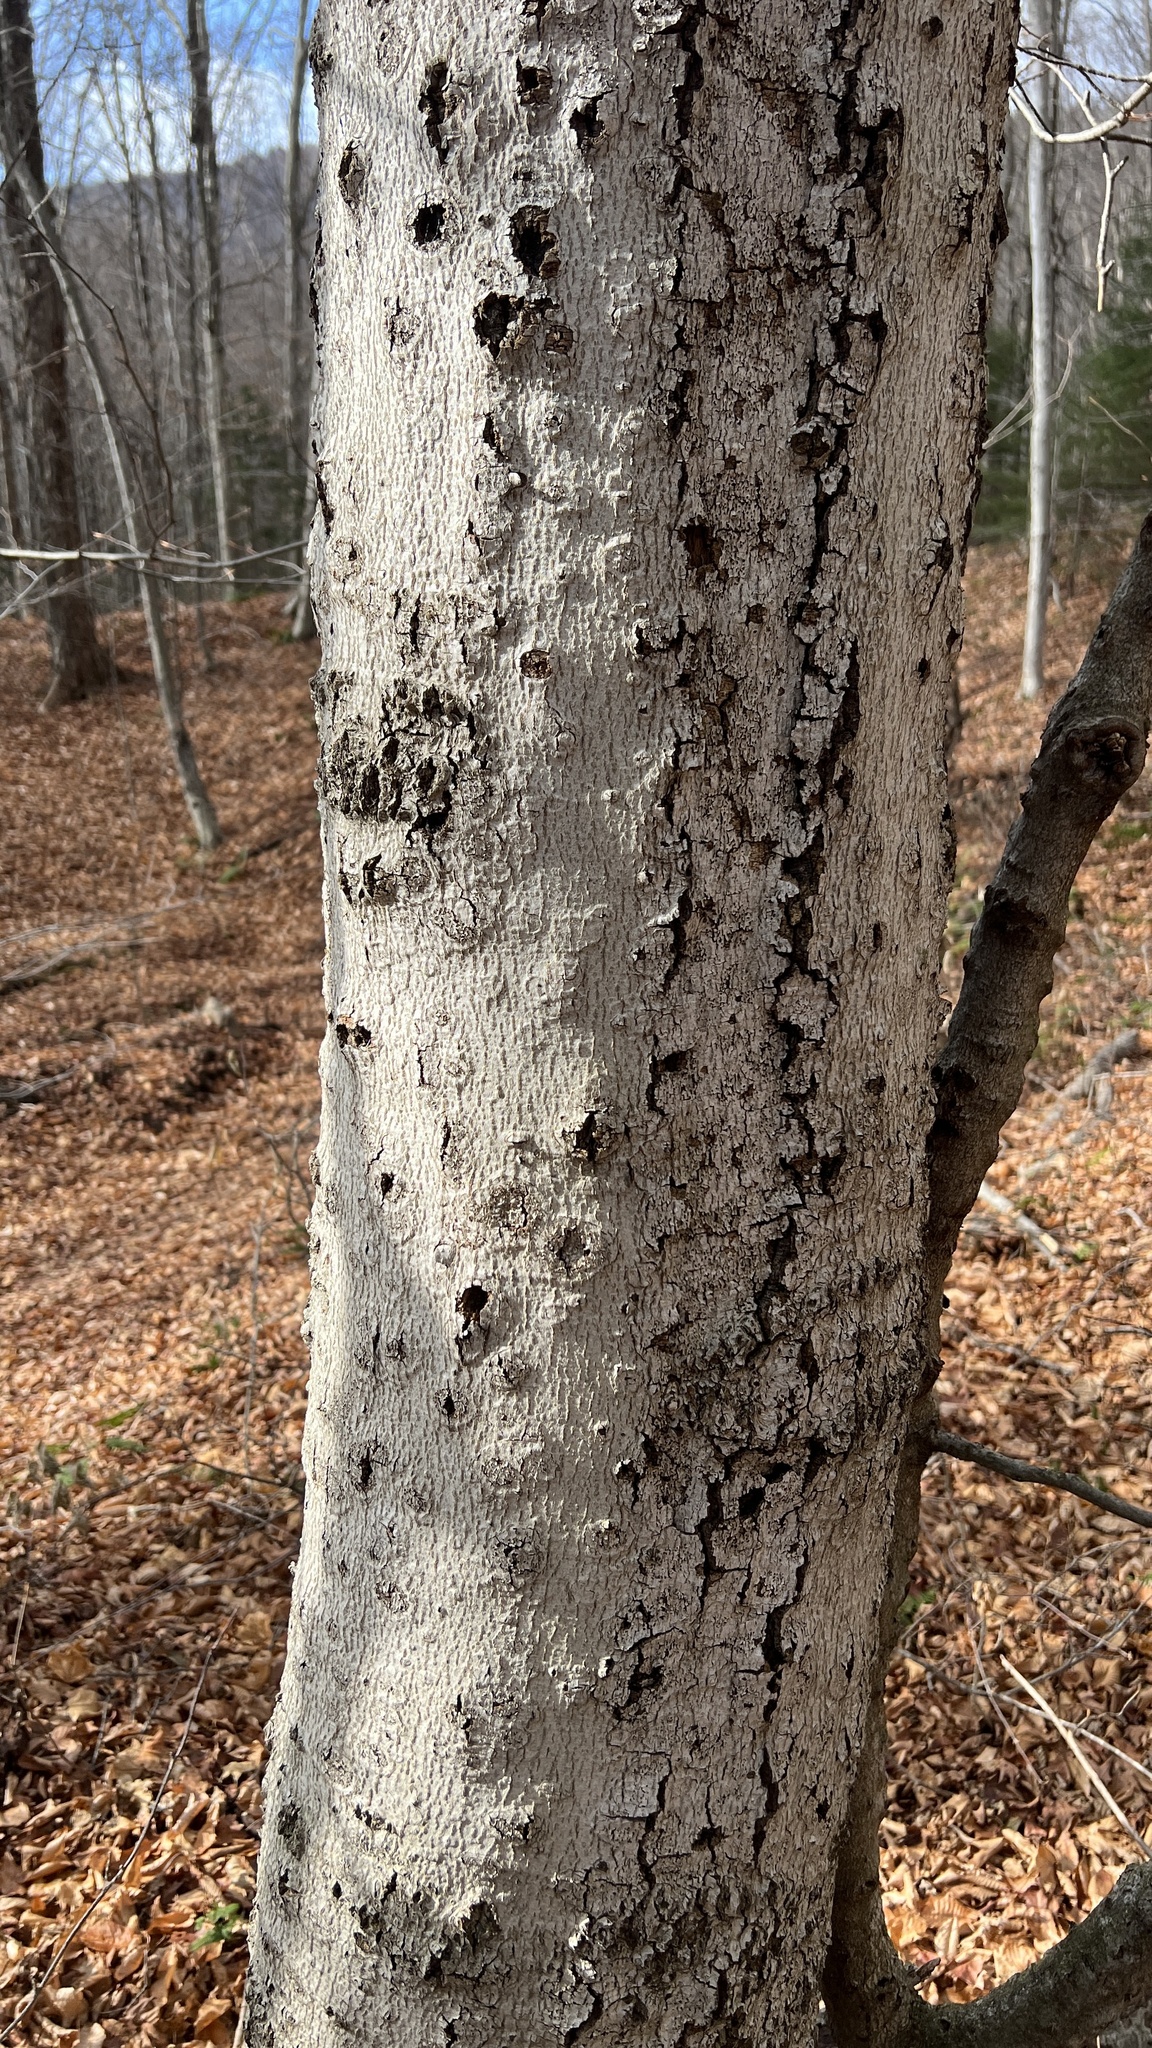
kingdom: Plantae
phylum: Tracheophyta
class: Magnoliopsida
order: Fagales
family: Fagaceae
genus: Fagus
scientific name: Fagus grandifolia
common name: American beech
